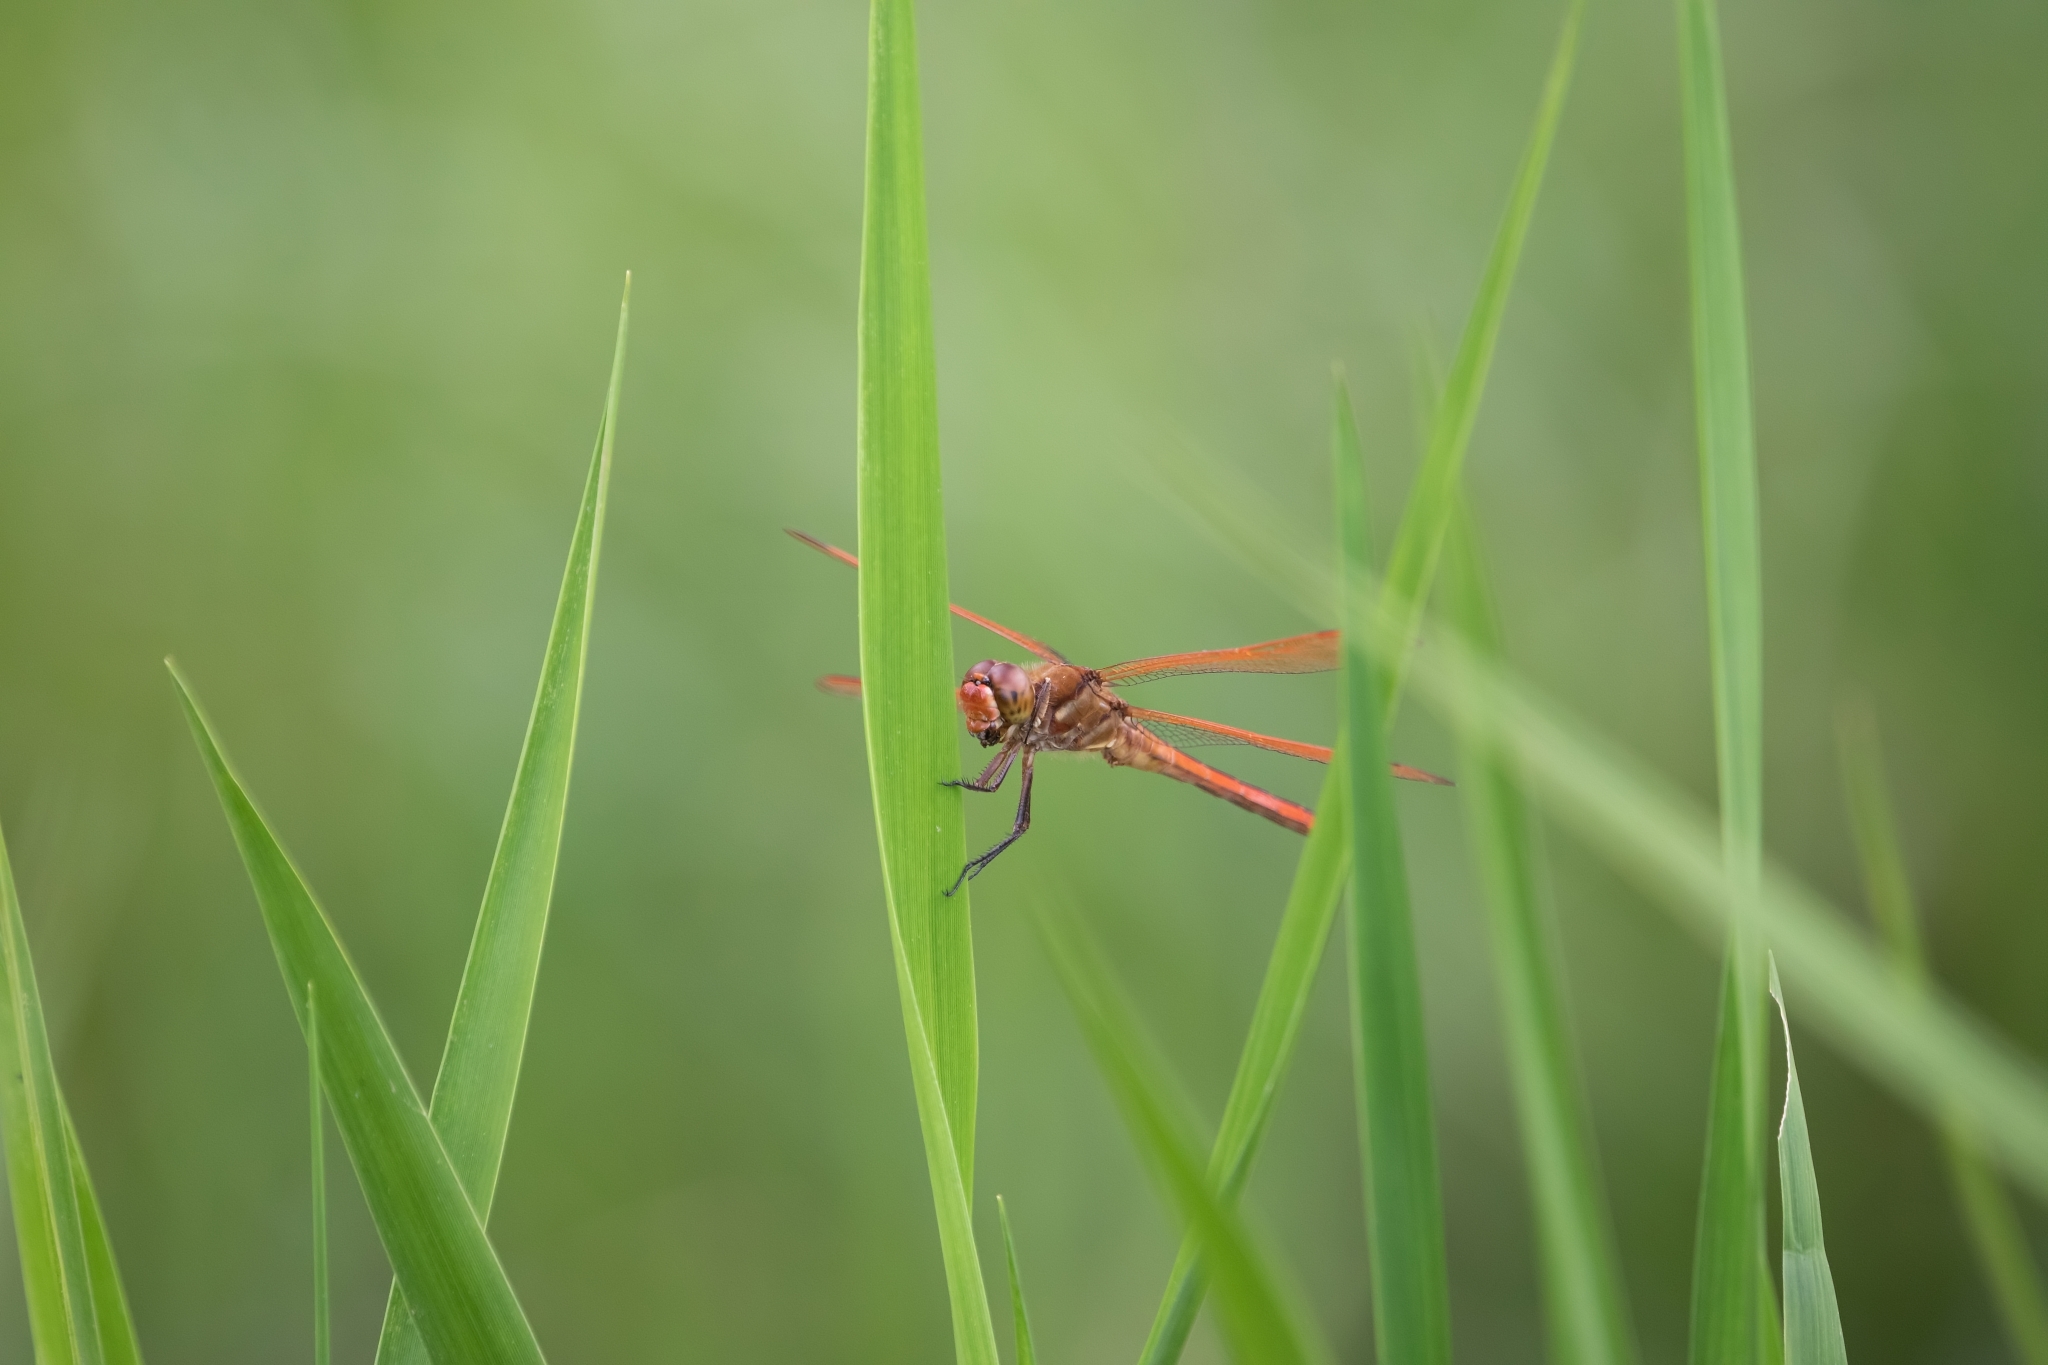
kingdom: Animalia
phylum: Arthropoda
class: Insecta
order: Odonata
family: Libellulidae
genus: Libellula
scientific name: Libellula auripennis
